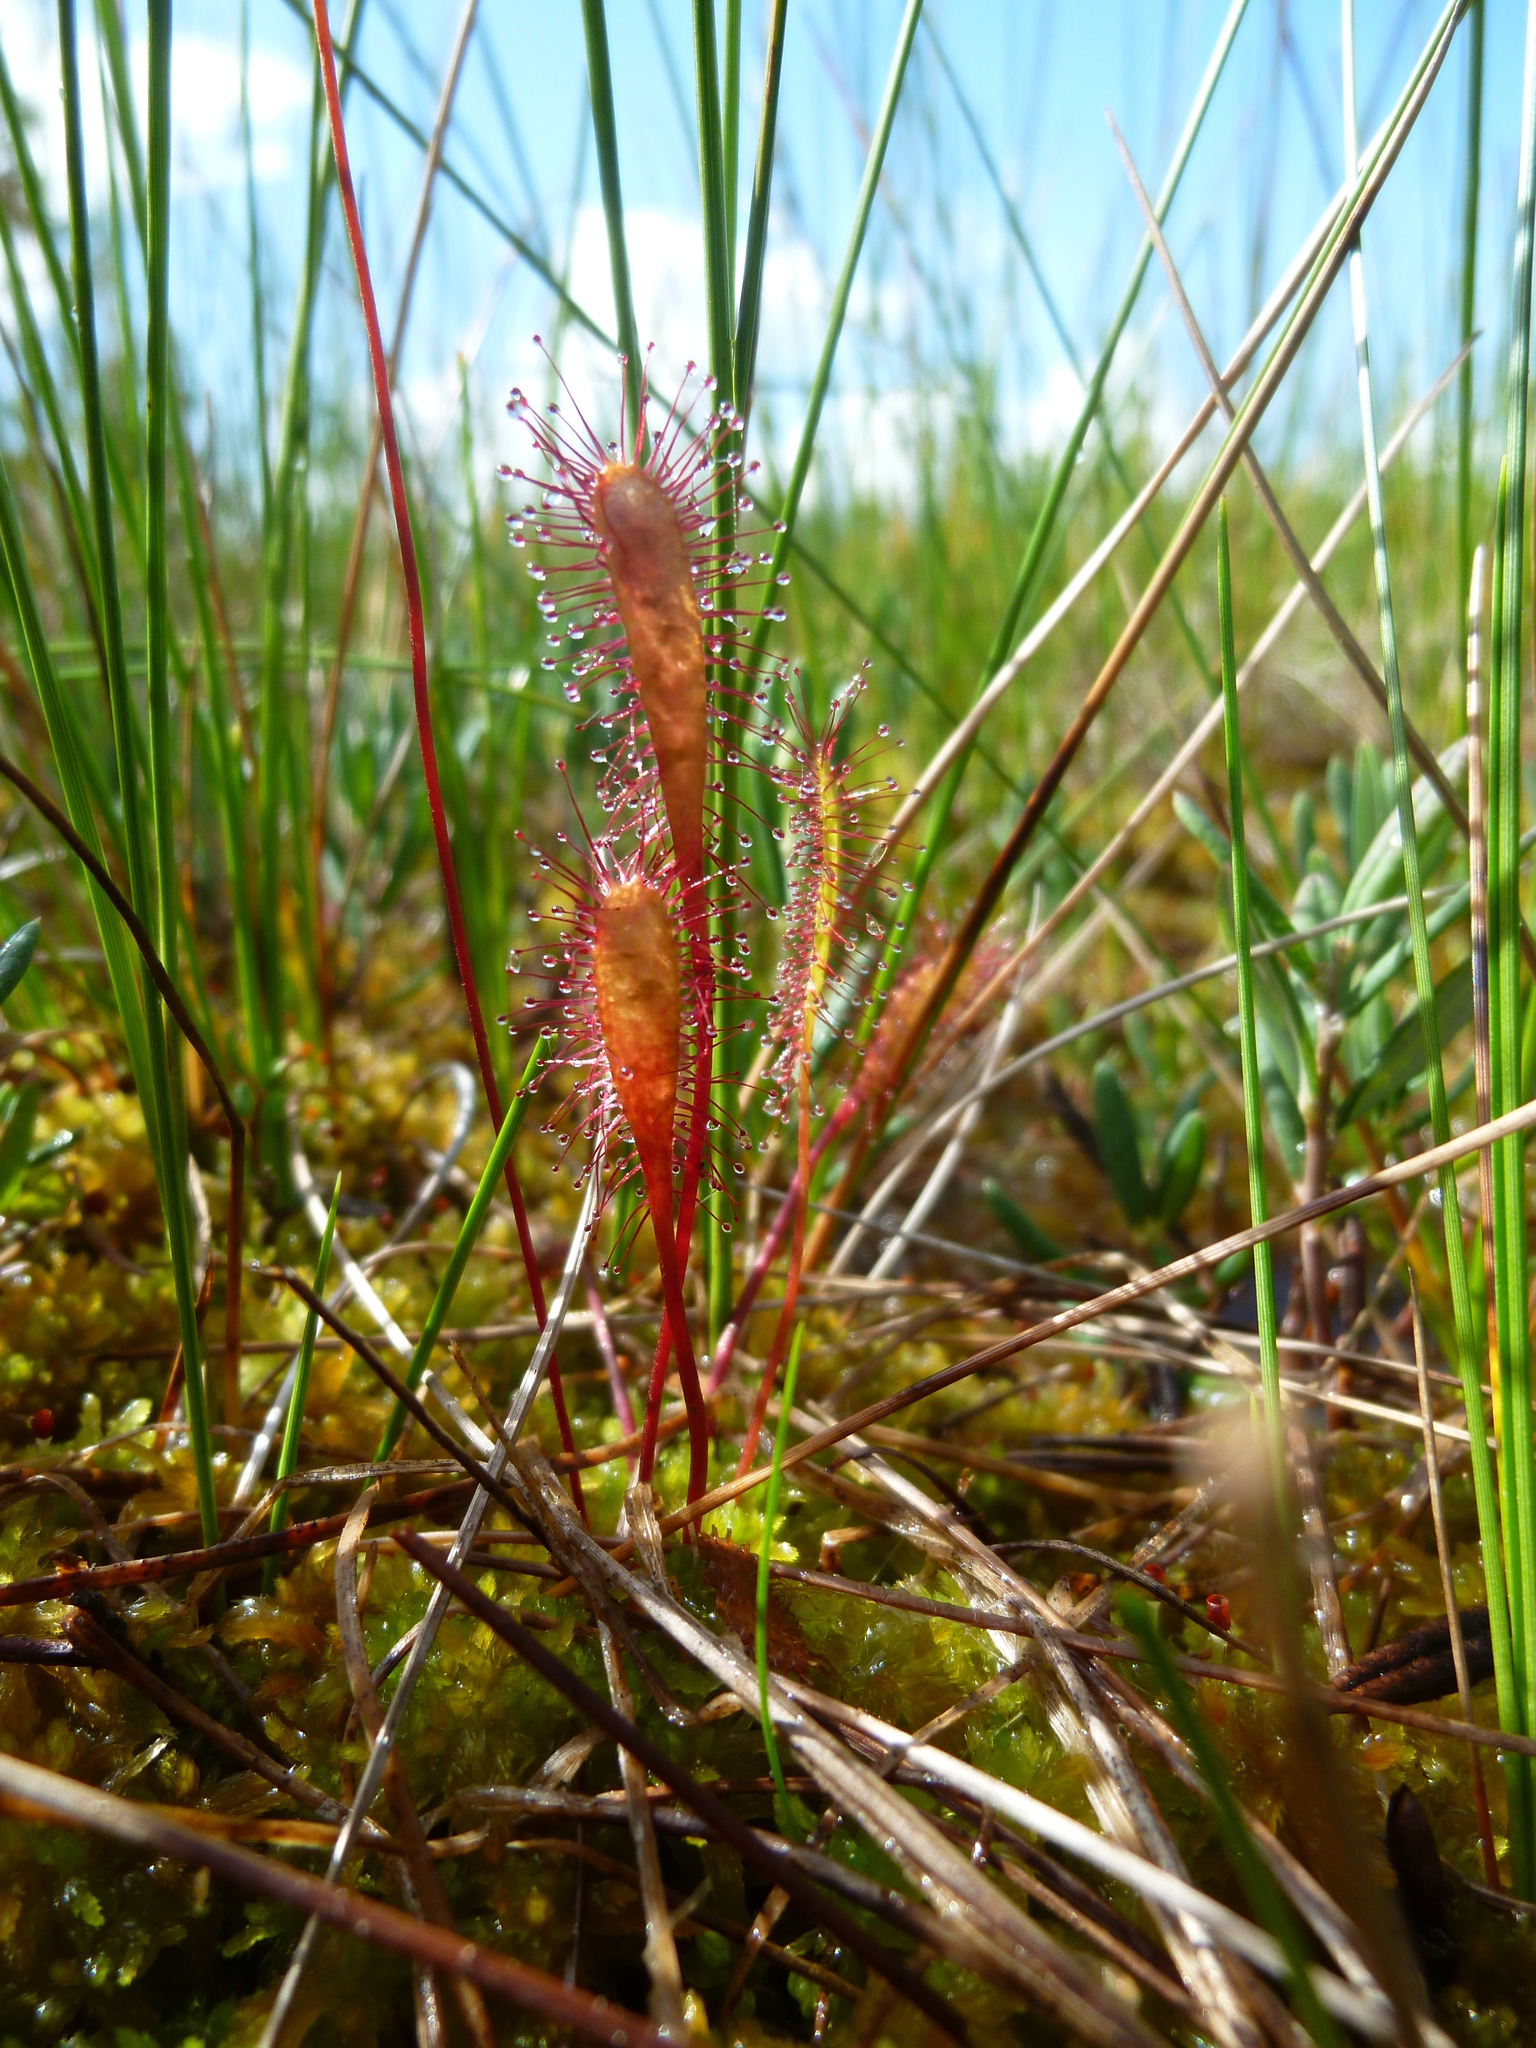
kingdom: Plantae
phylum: Tracheophyta
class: Magnoliopsida
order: Caryophyllales
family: Droseraceae
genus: Drosera
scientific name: Drosera anglica
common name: Great sundew
